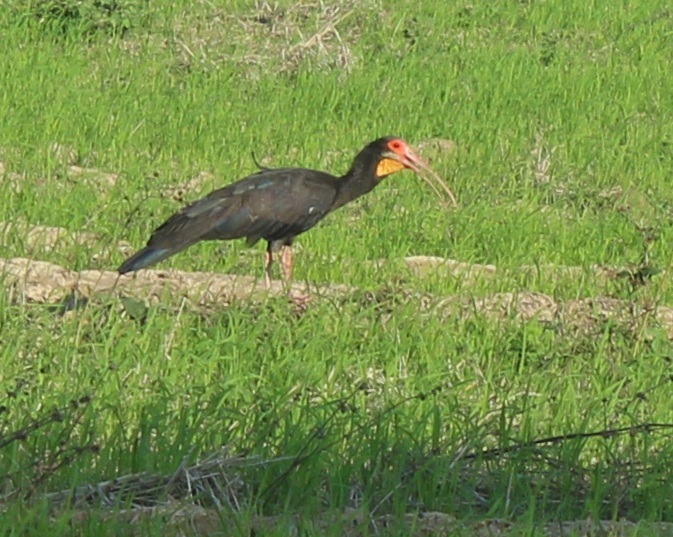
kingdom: Animalia
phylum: Chordata
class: Aves
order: Pelecaniformes
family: Threskiornithidae
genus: Cercibis
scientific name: Cercibis oxycerca
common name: Sharp-tailed ibis
